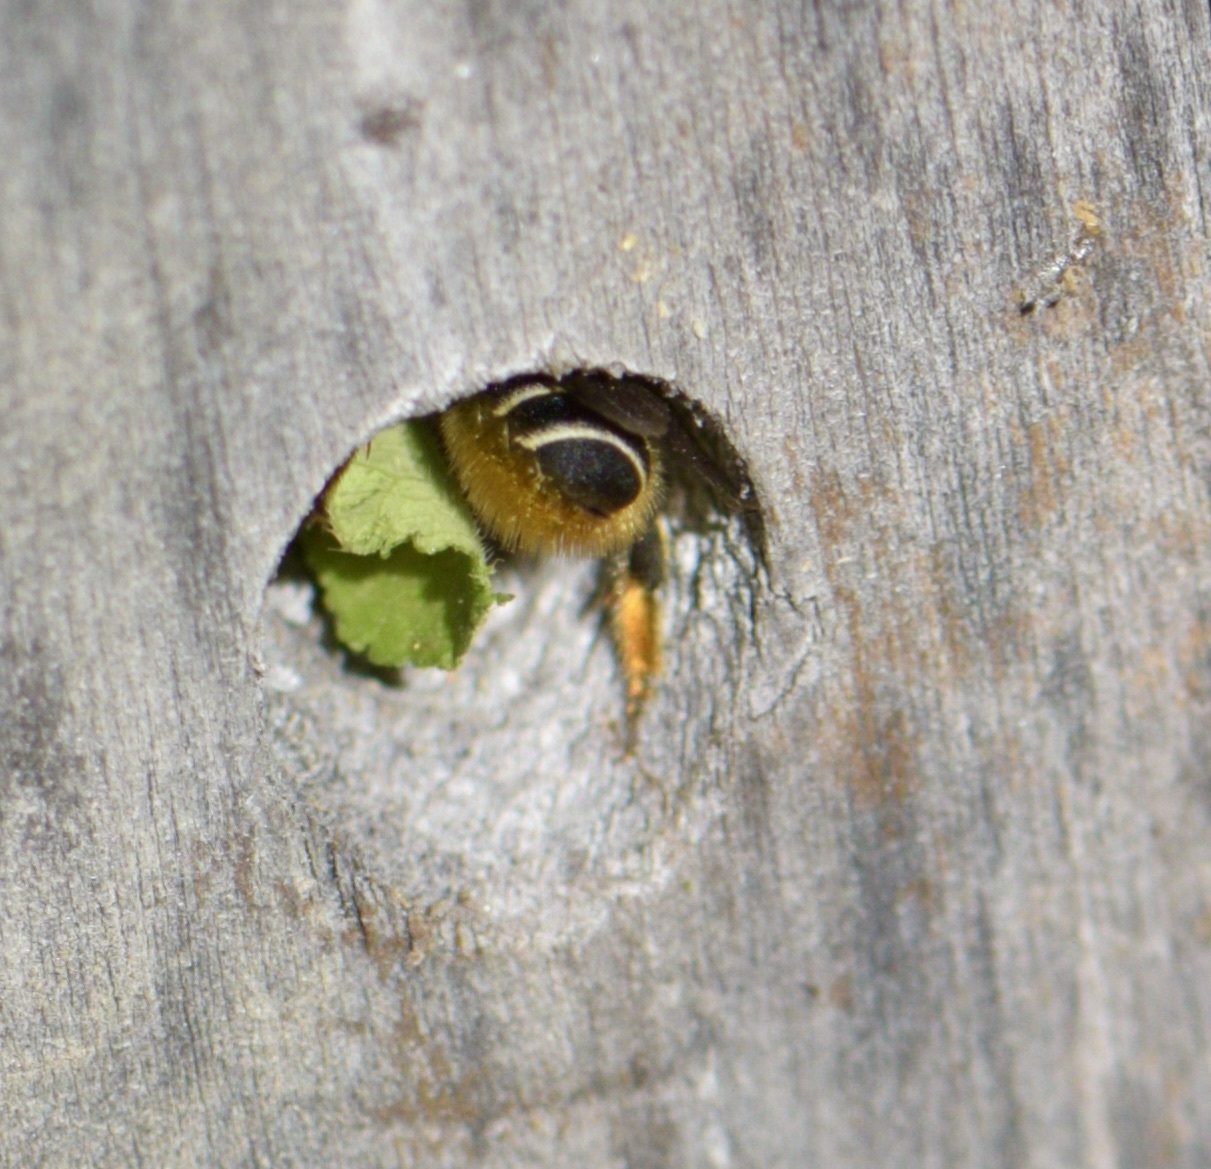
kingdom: Animalia
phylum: Arthropoda
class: Insecta
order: Hymenoptera
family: Megachilidae
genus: Megachile
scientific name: Megachile relativa
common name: Golden-tailed leafcutter
